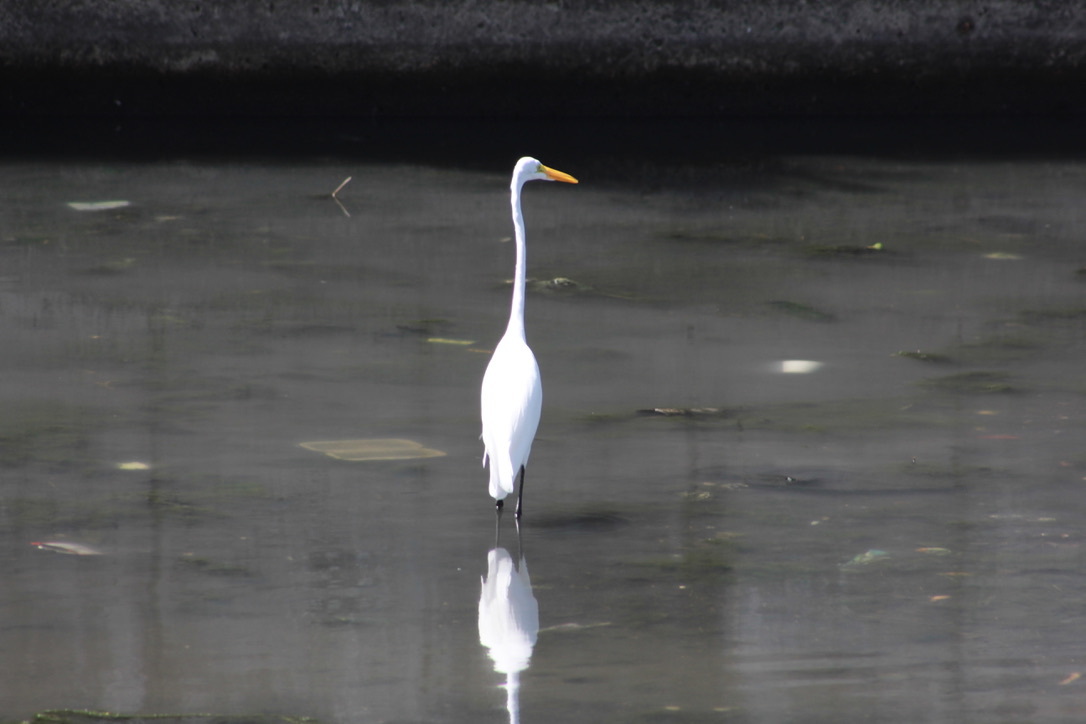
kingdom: Animalia
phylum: Chordata
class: Aves
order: Pelecaniformes
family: Ardeidae
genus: Ardea
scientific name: Ardea alba
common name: Great egret
